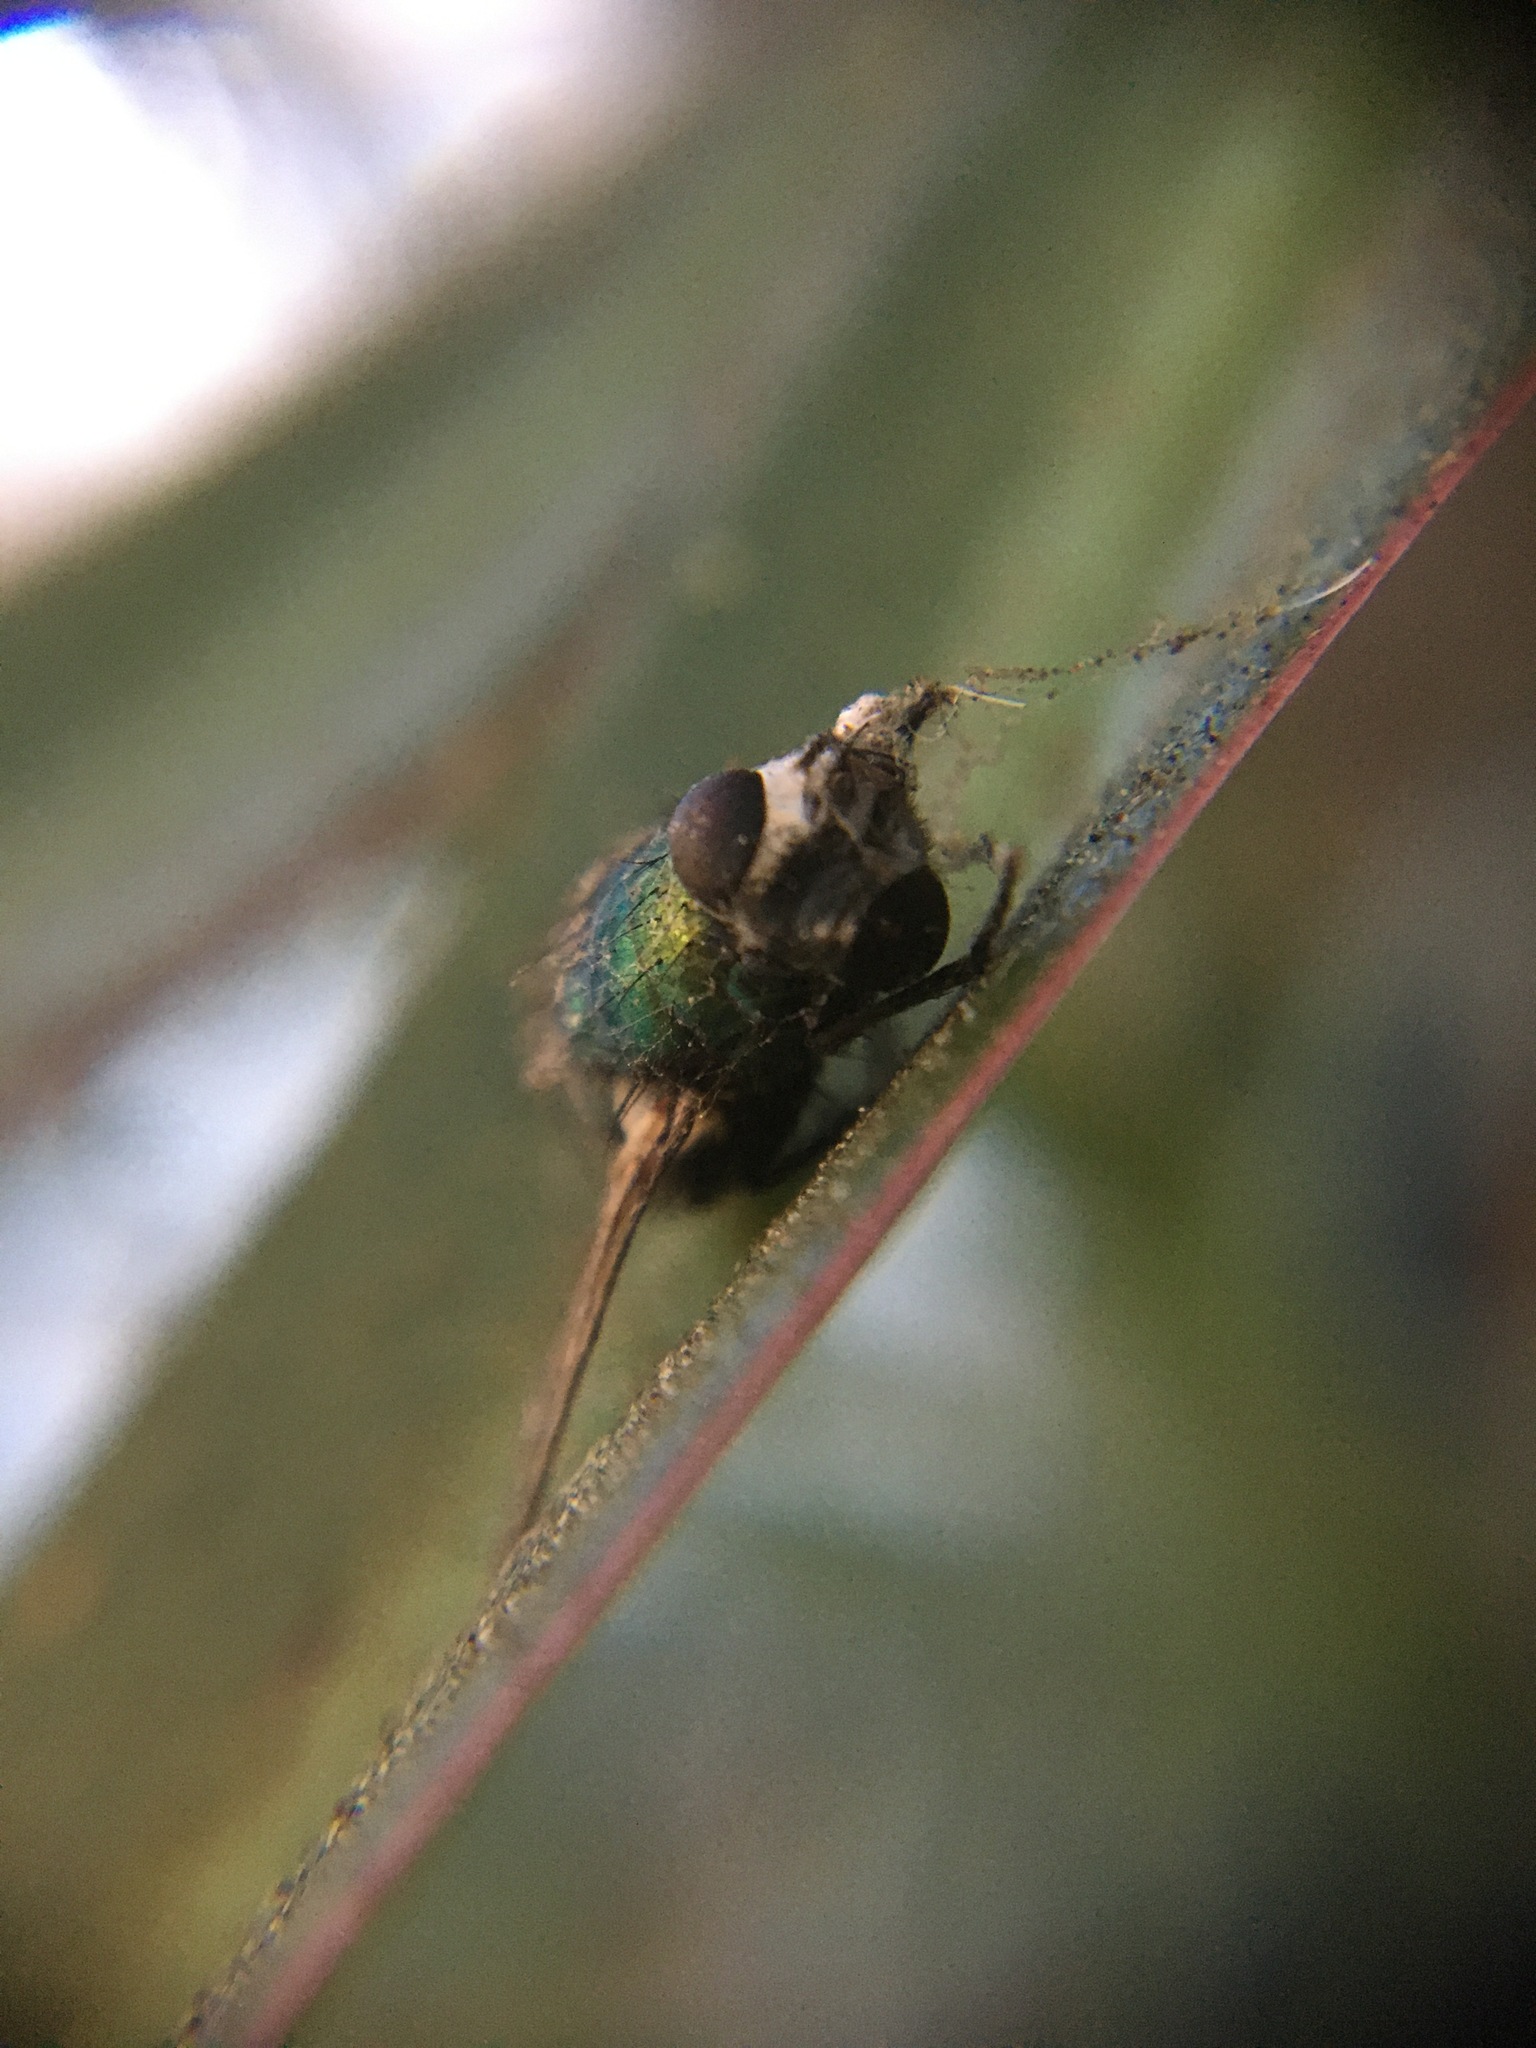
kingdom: Animalia
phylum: Arthropoda
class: Insecta
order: Diptera
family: Calliphoridae
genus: Lucilia
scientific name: Lucilia sericata
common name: Blow fly
